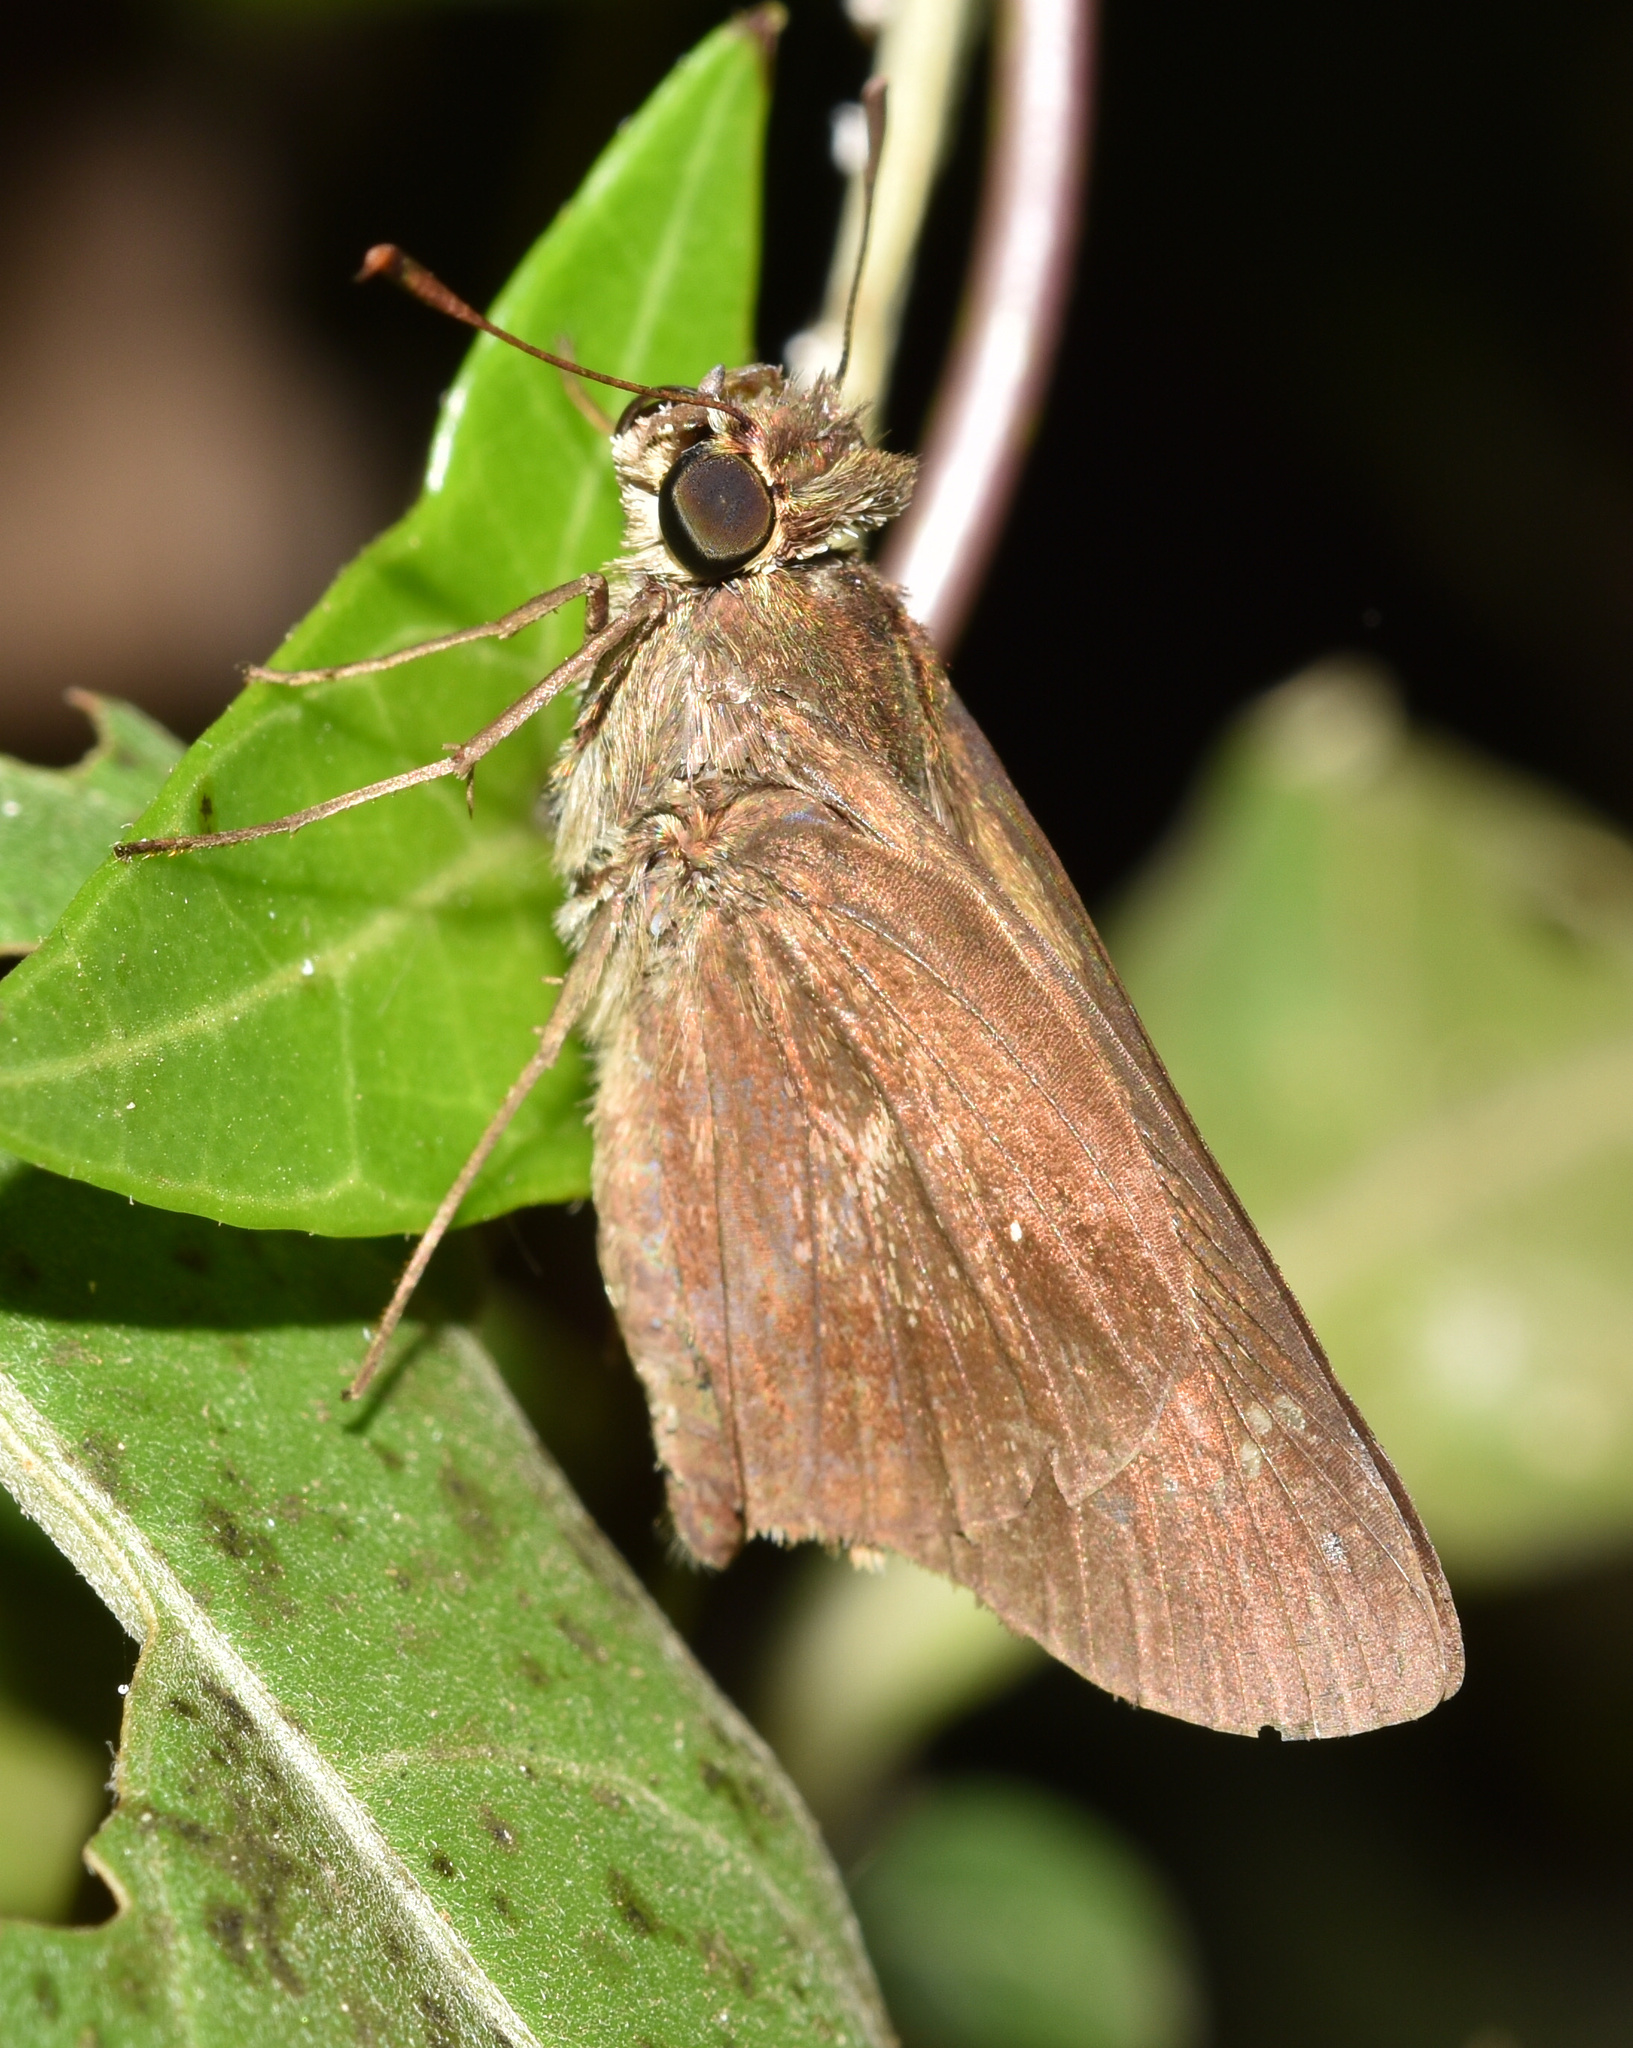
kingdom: Animalia
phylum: Arthropoda
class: Insecta
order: Lepidoptera
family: Hesperiidae
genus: Baoris
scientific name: Baoris fatuellus
